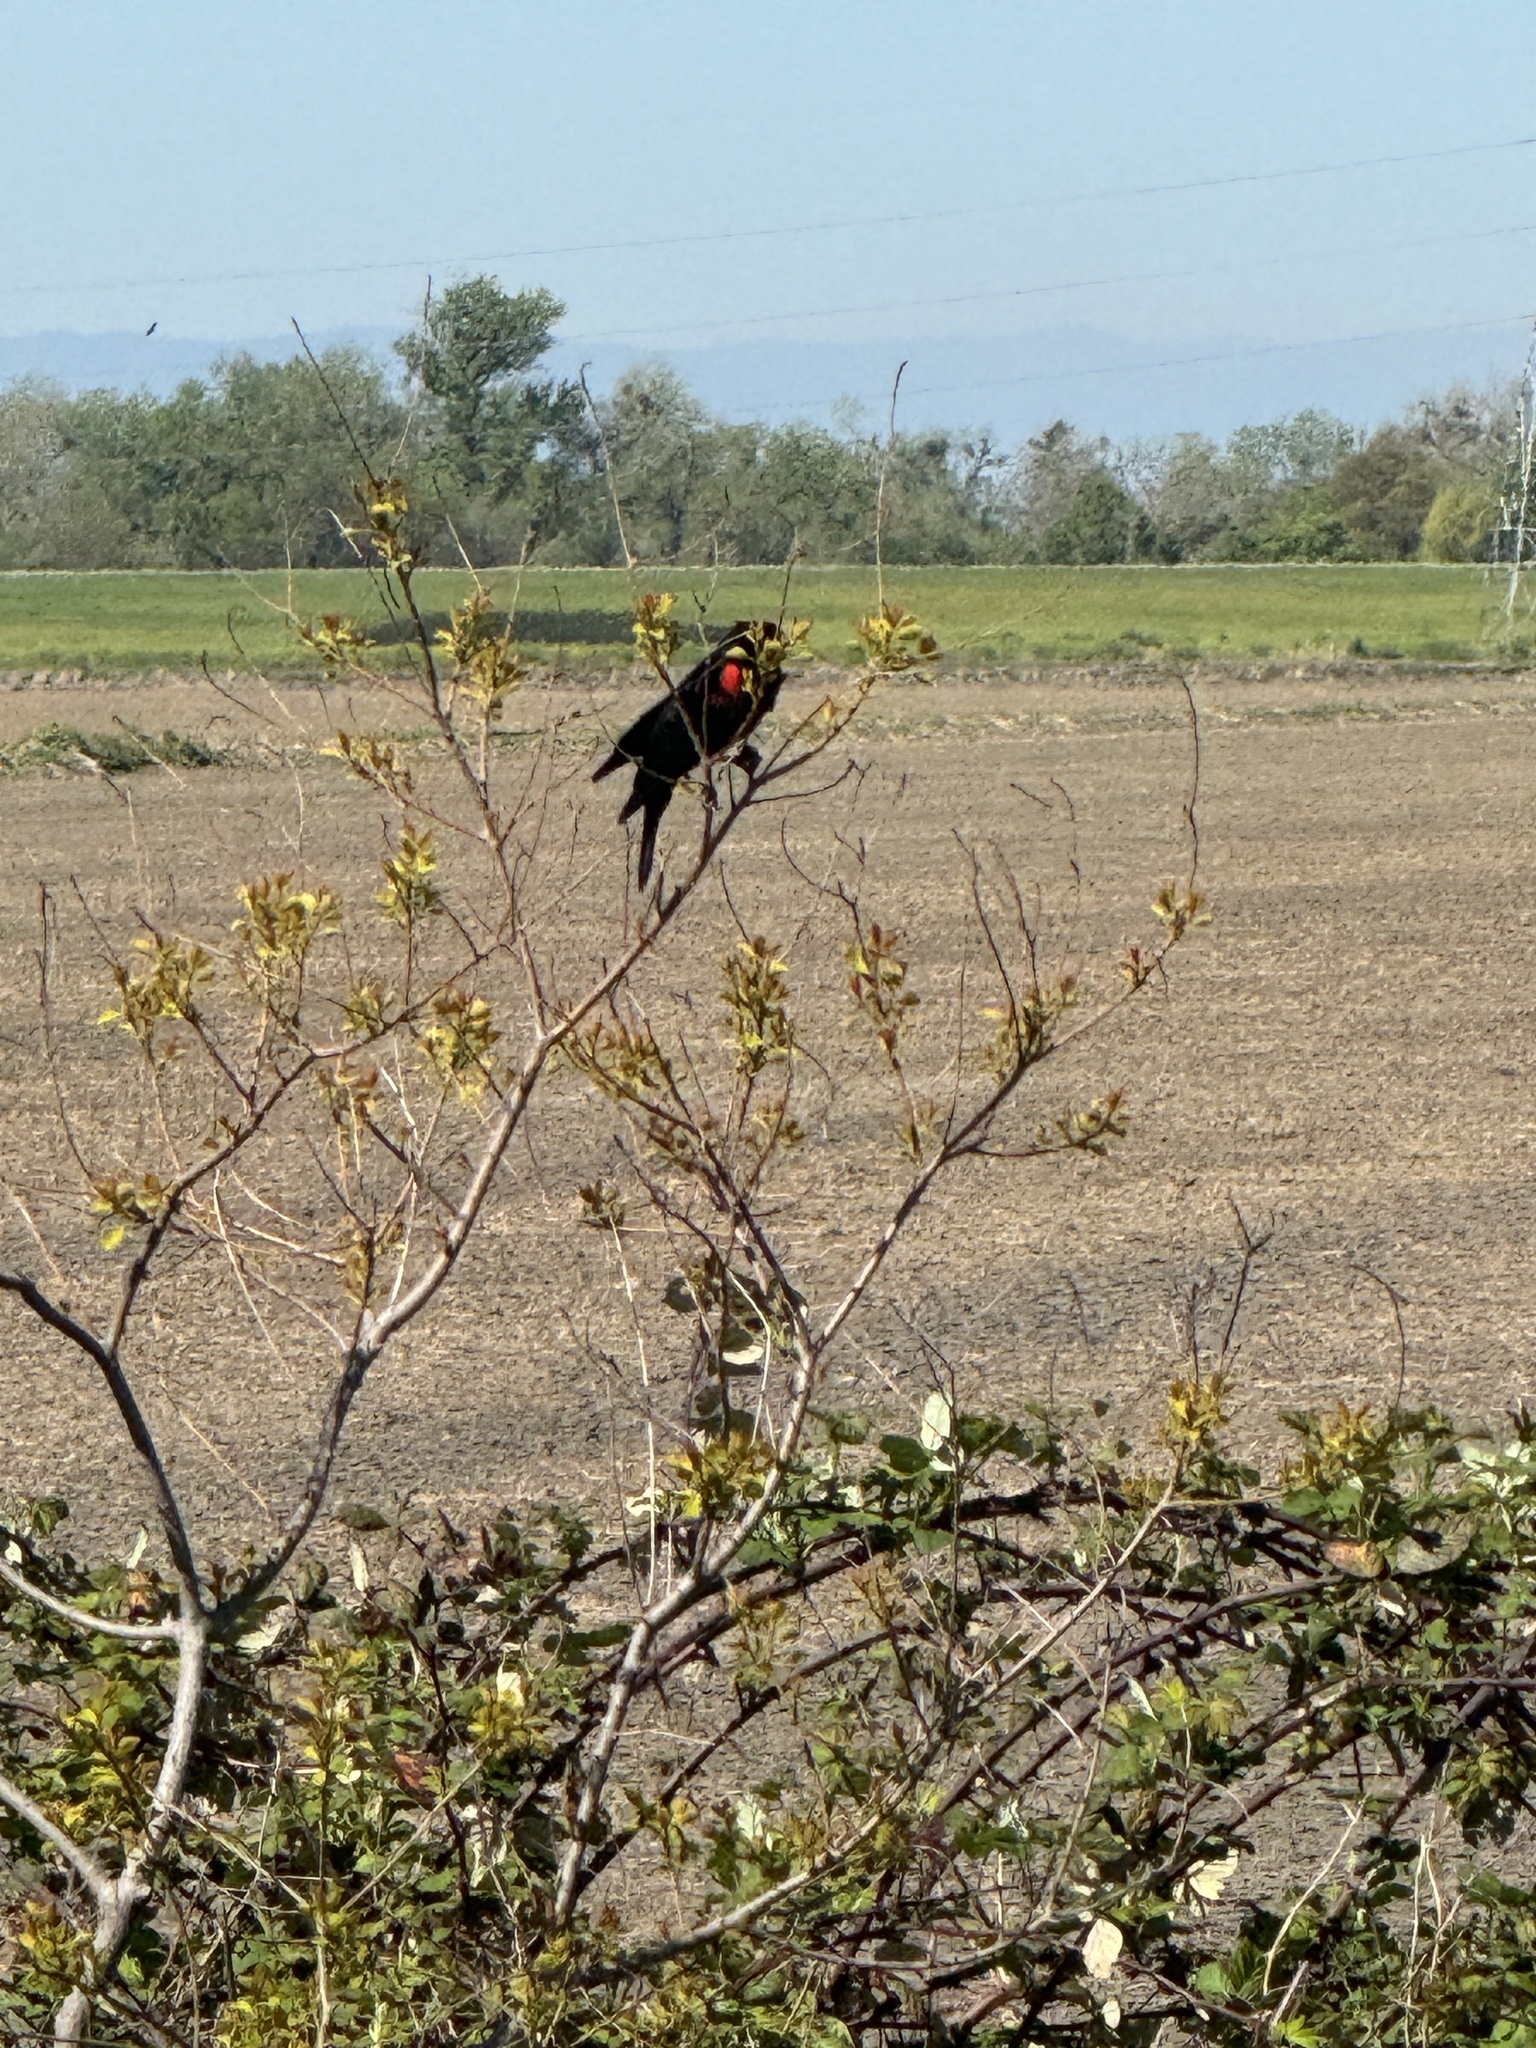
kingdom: Animalia
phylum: Chordata
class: Aves
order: Passeriformes
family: Icteridae
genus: Agelaius
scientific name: Agelaius phoeniceus
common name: Red-winged blackbird
